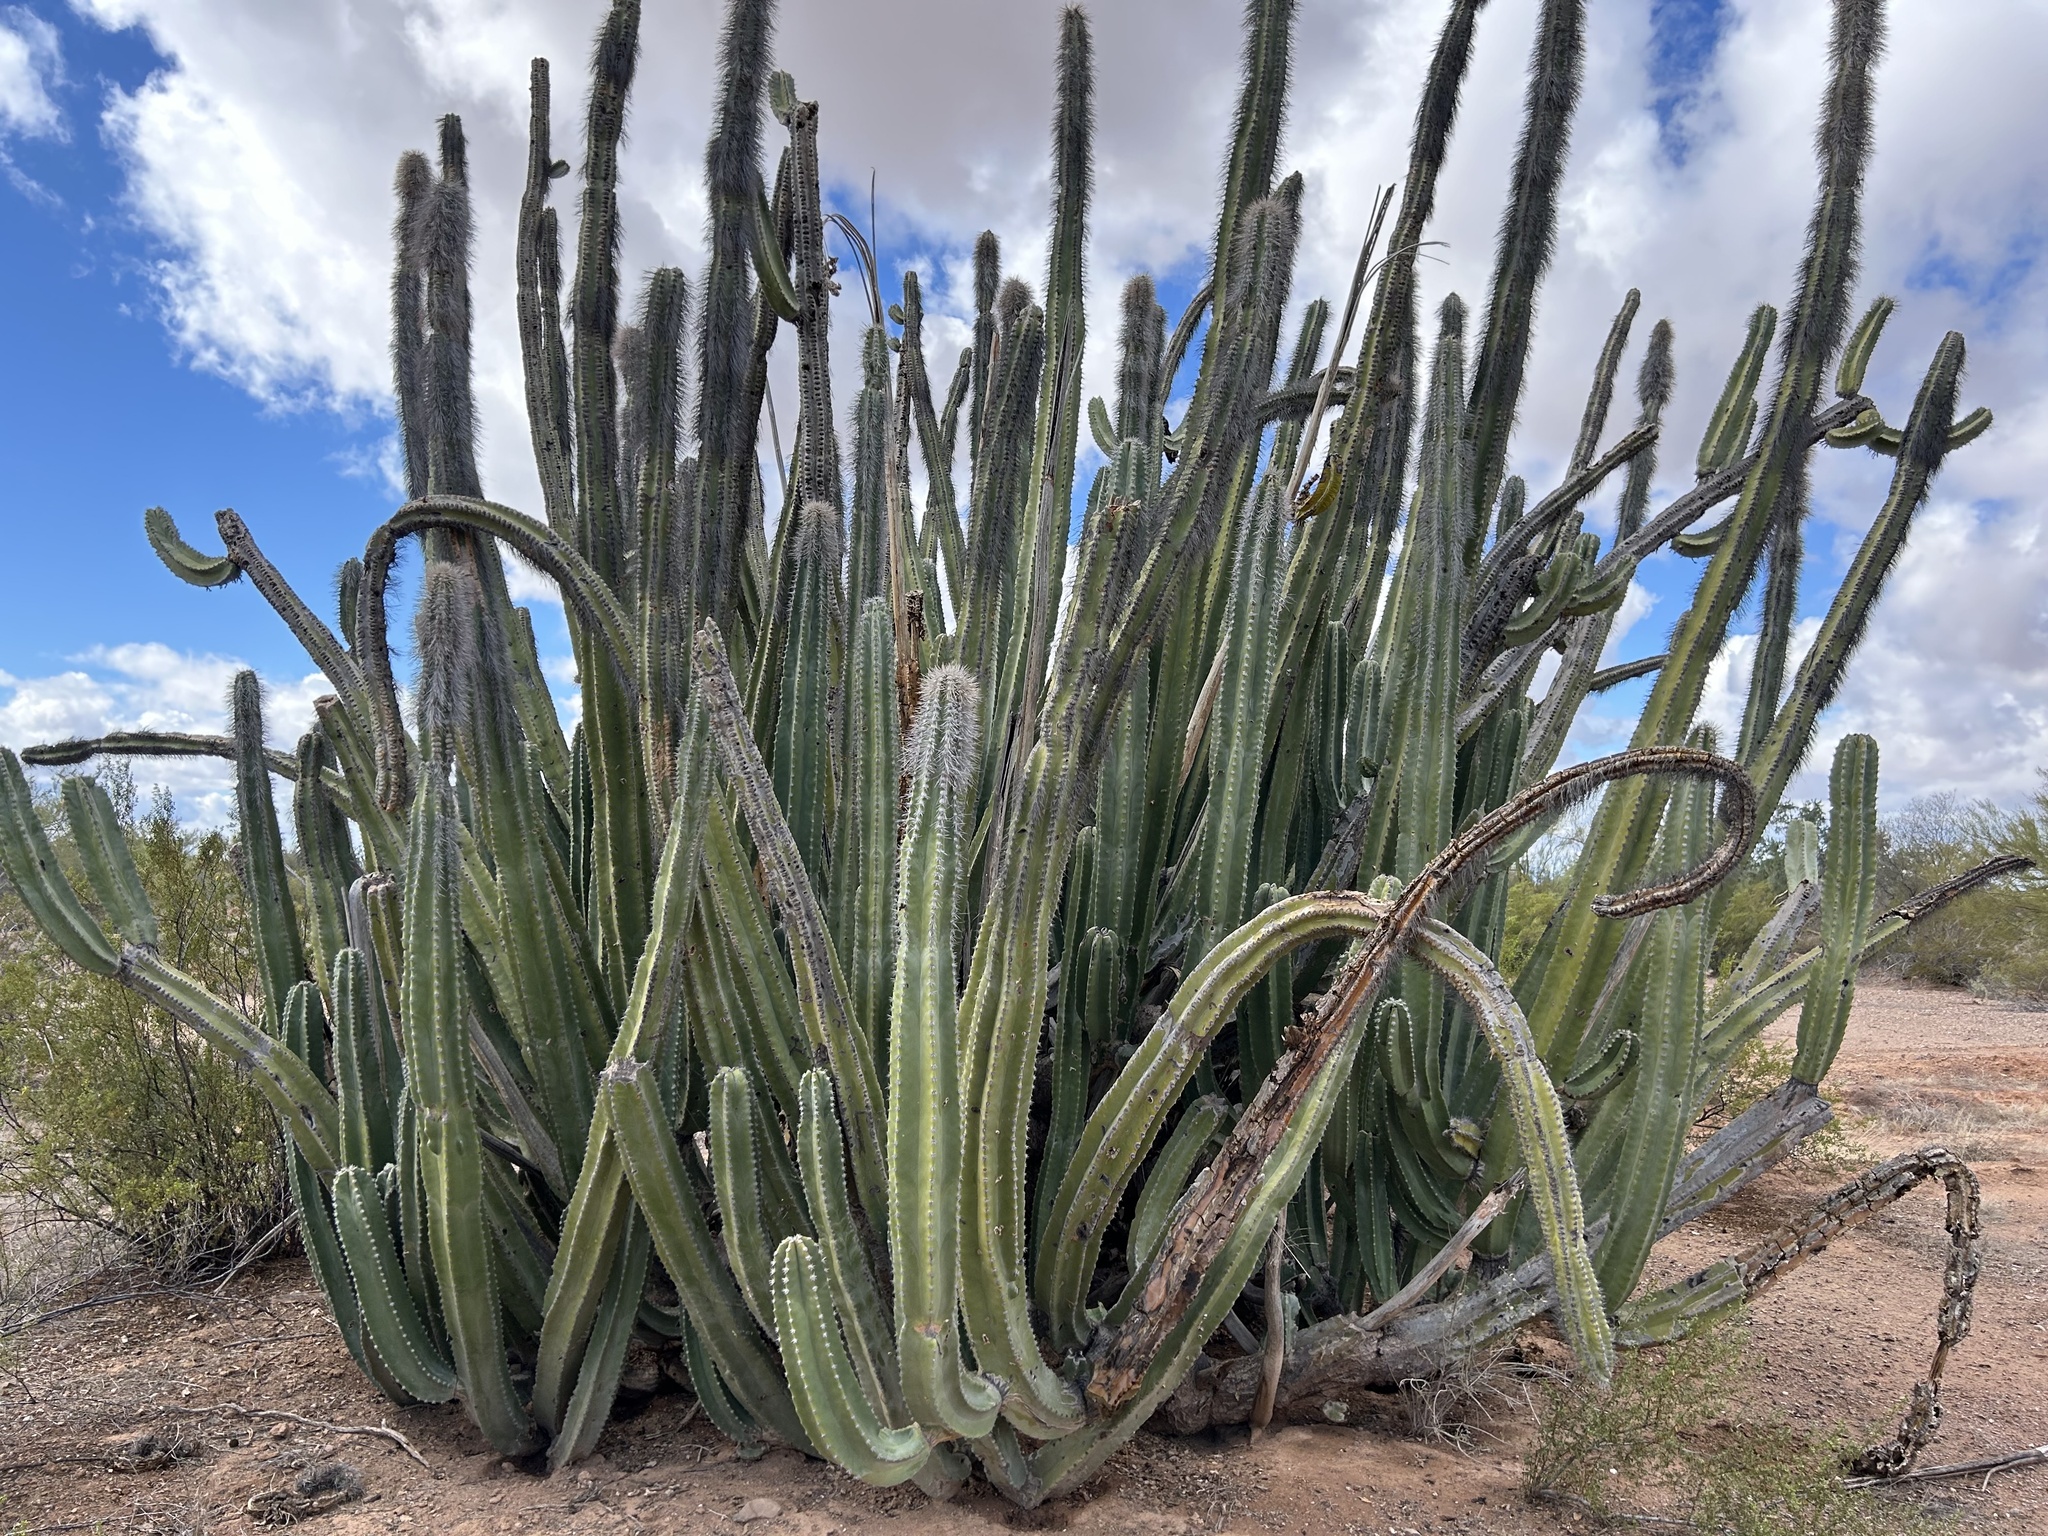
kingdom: Plantae
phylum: Tracheophyta
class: Magnoliopsida
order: Caryophyllales
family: Cactaceae
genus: Pachycereus
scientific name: Pachycereus schottii
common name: Senita cactus
